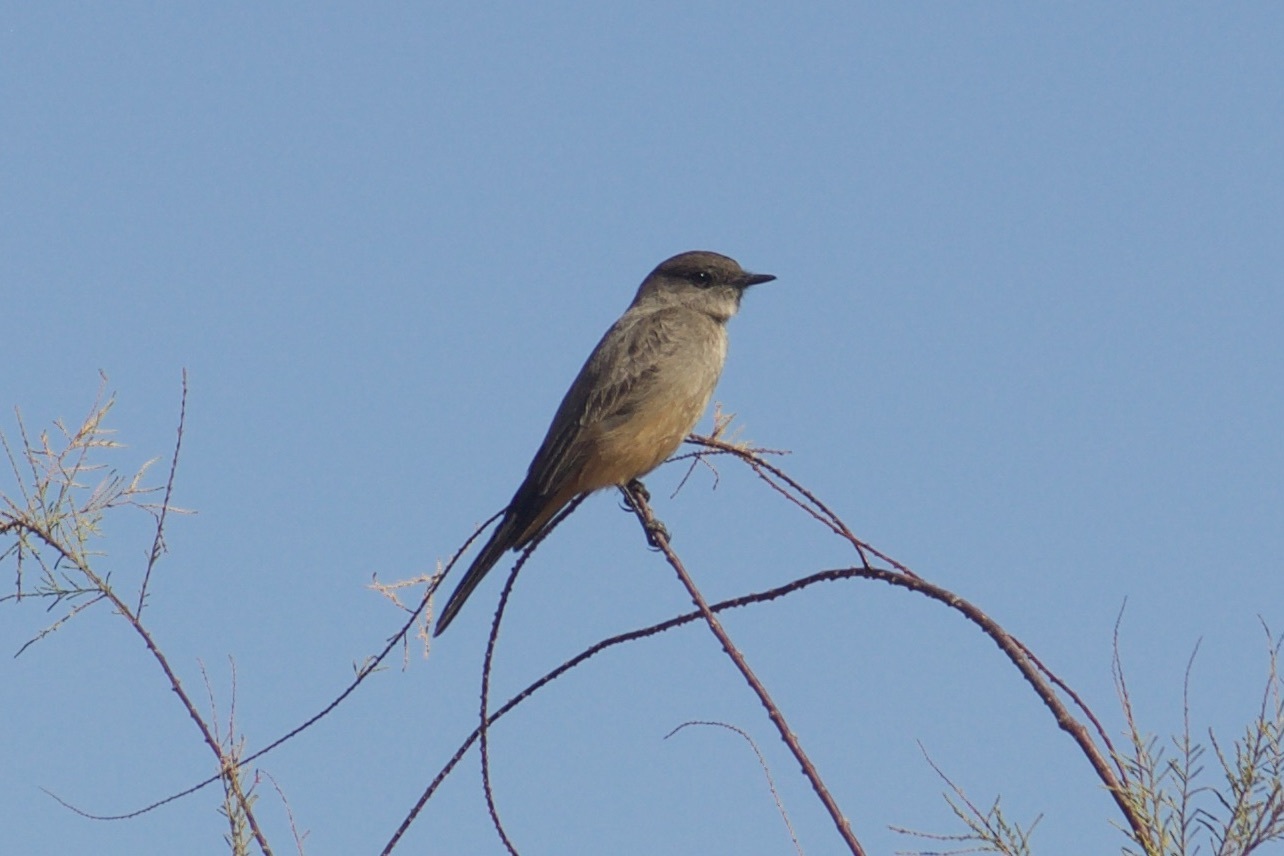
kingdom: Animalia
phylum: Chordata
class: Aves
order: Passeriformes
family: Tyrannidae
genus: Sayornis
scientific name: Sayornis saya
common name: Say's phoebe
